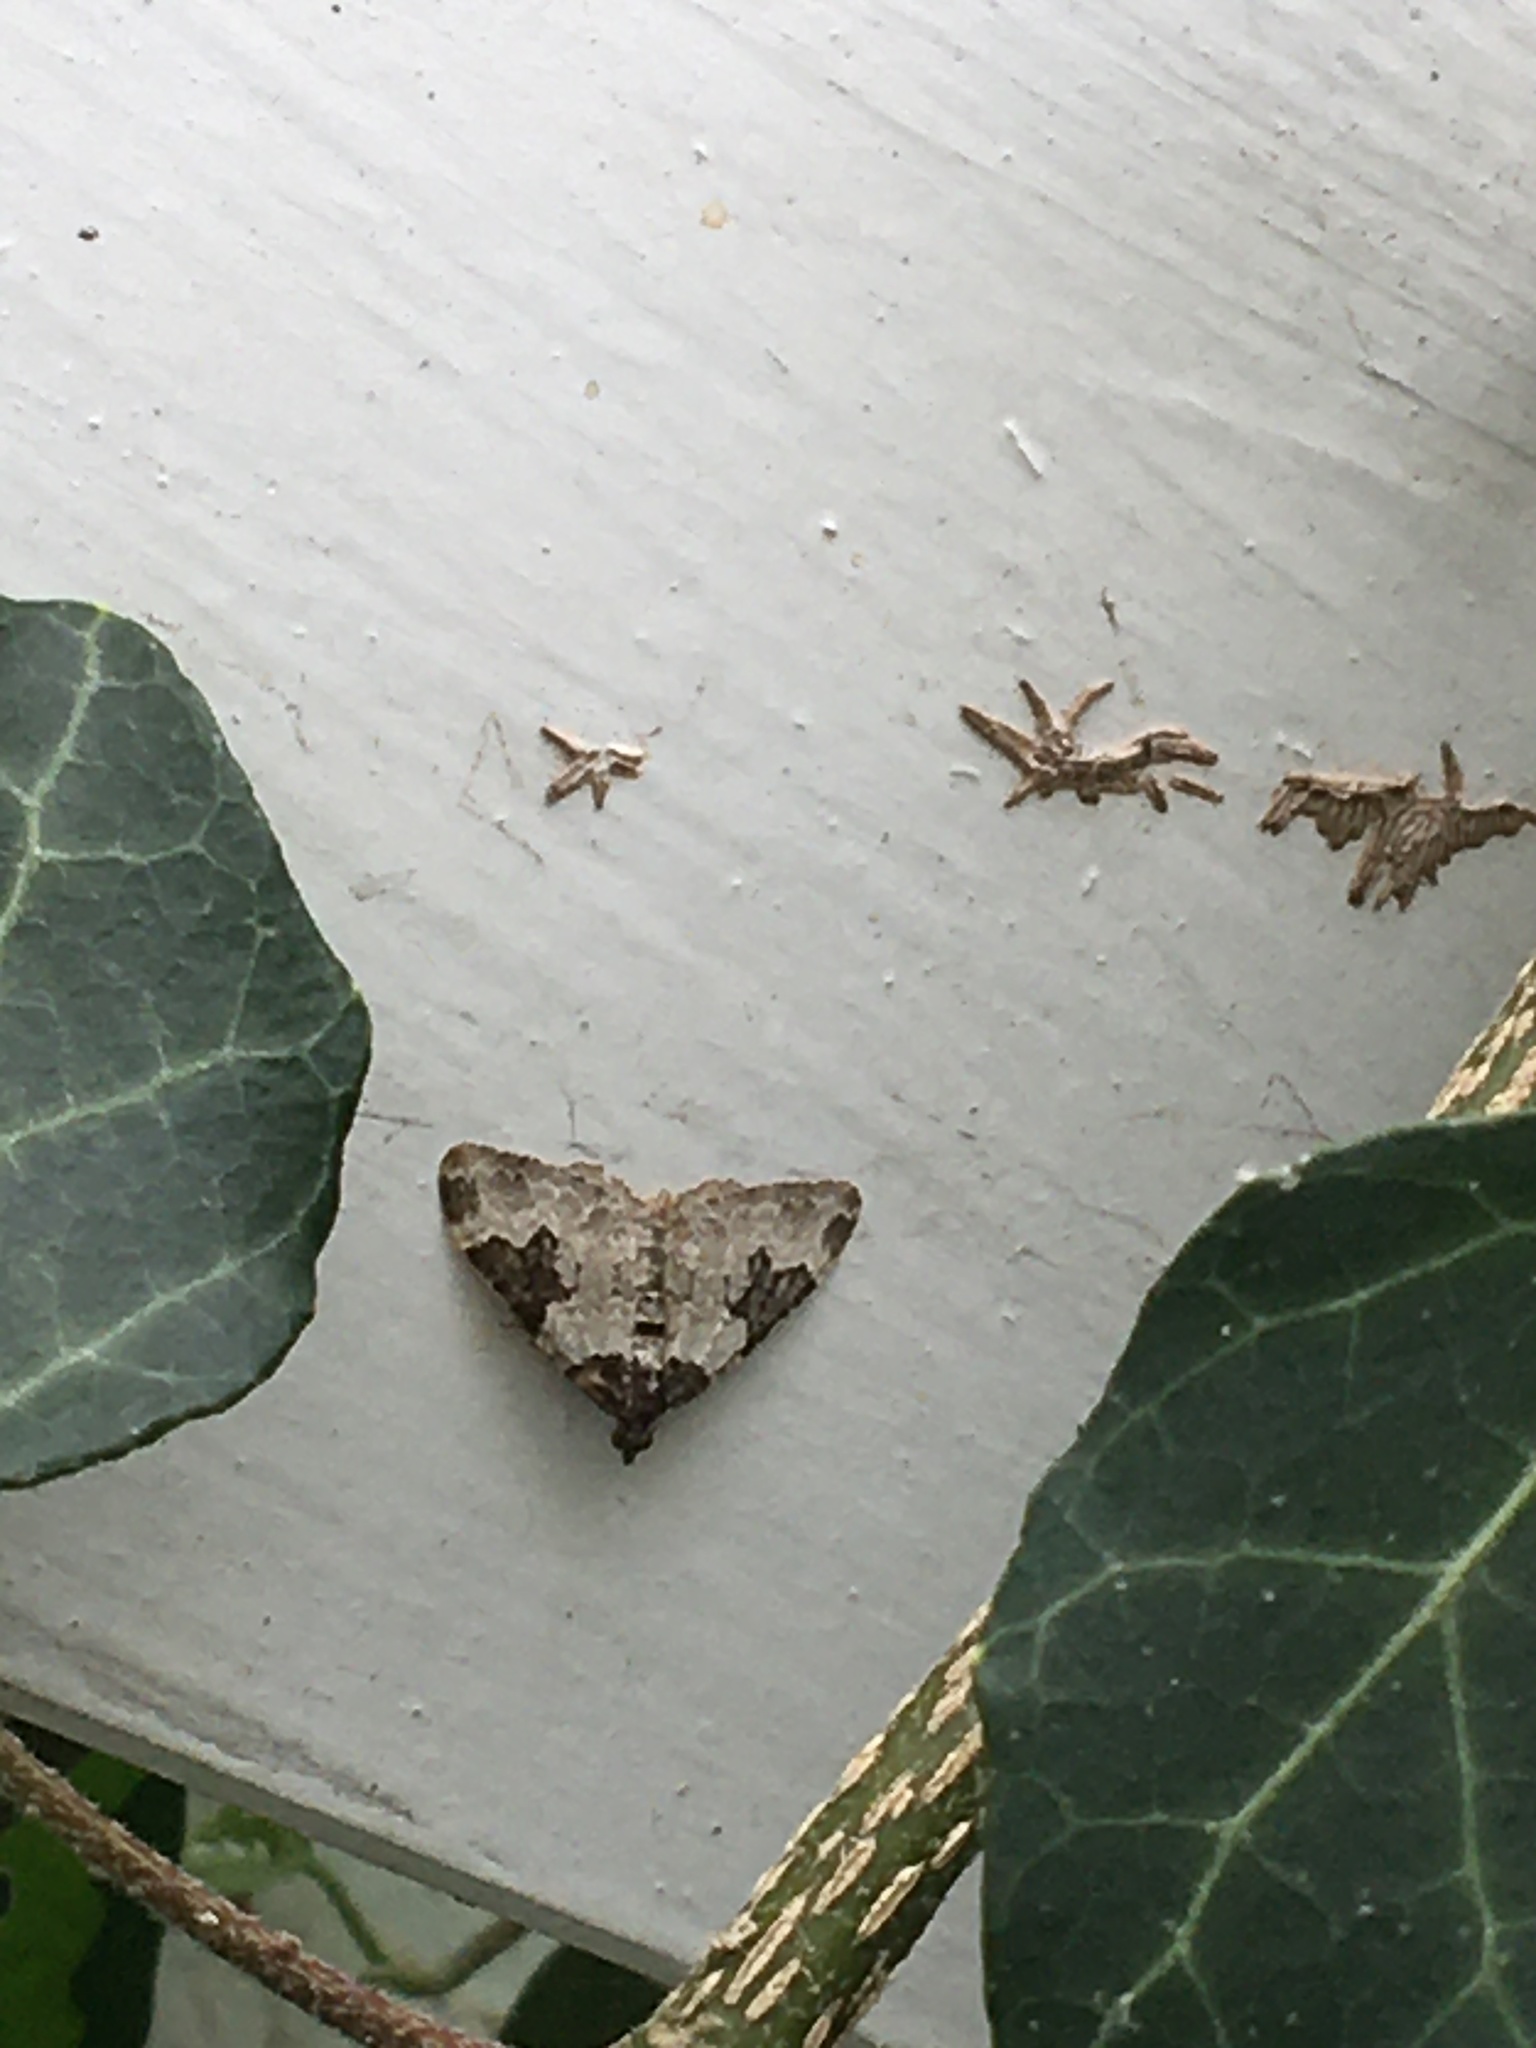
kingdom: Animalia
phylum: Arthropoda
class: Insecta
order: Lepidoptera
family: Geometridae
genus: Xanthorhoe
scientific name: Xanthorhoe fluctuata
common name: Garden carpet
